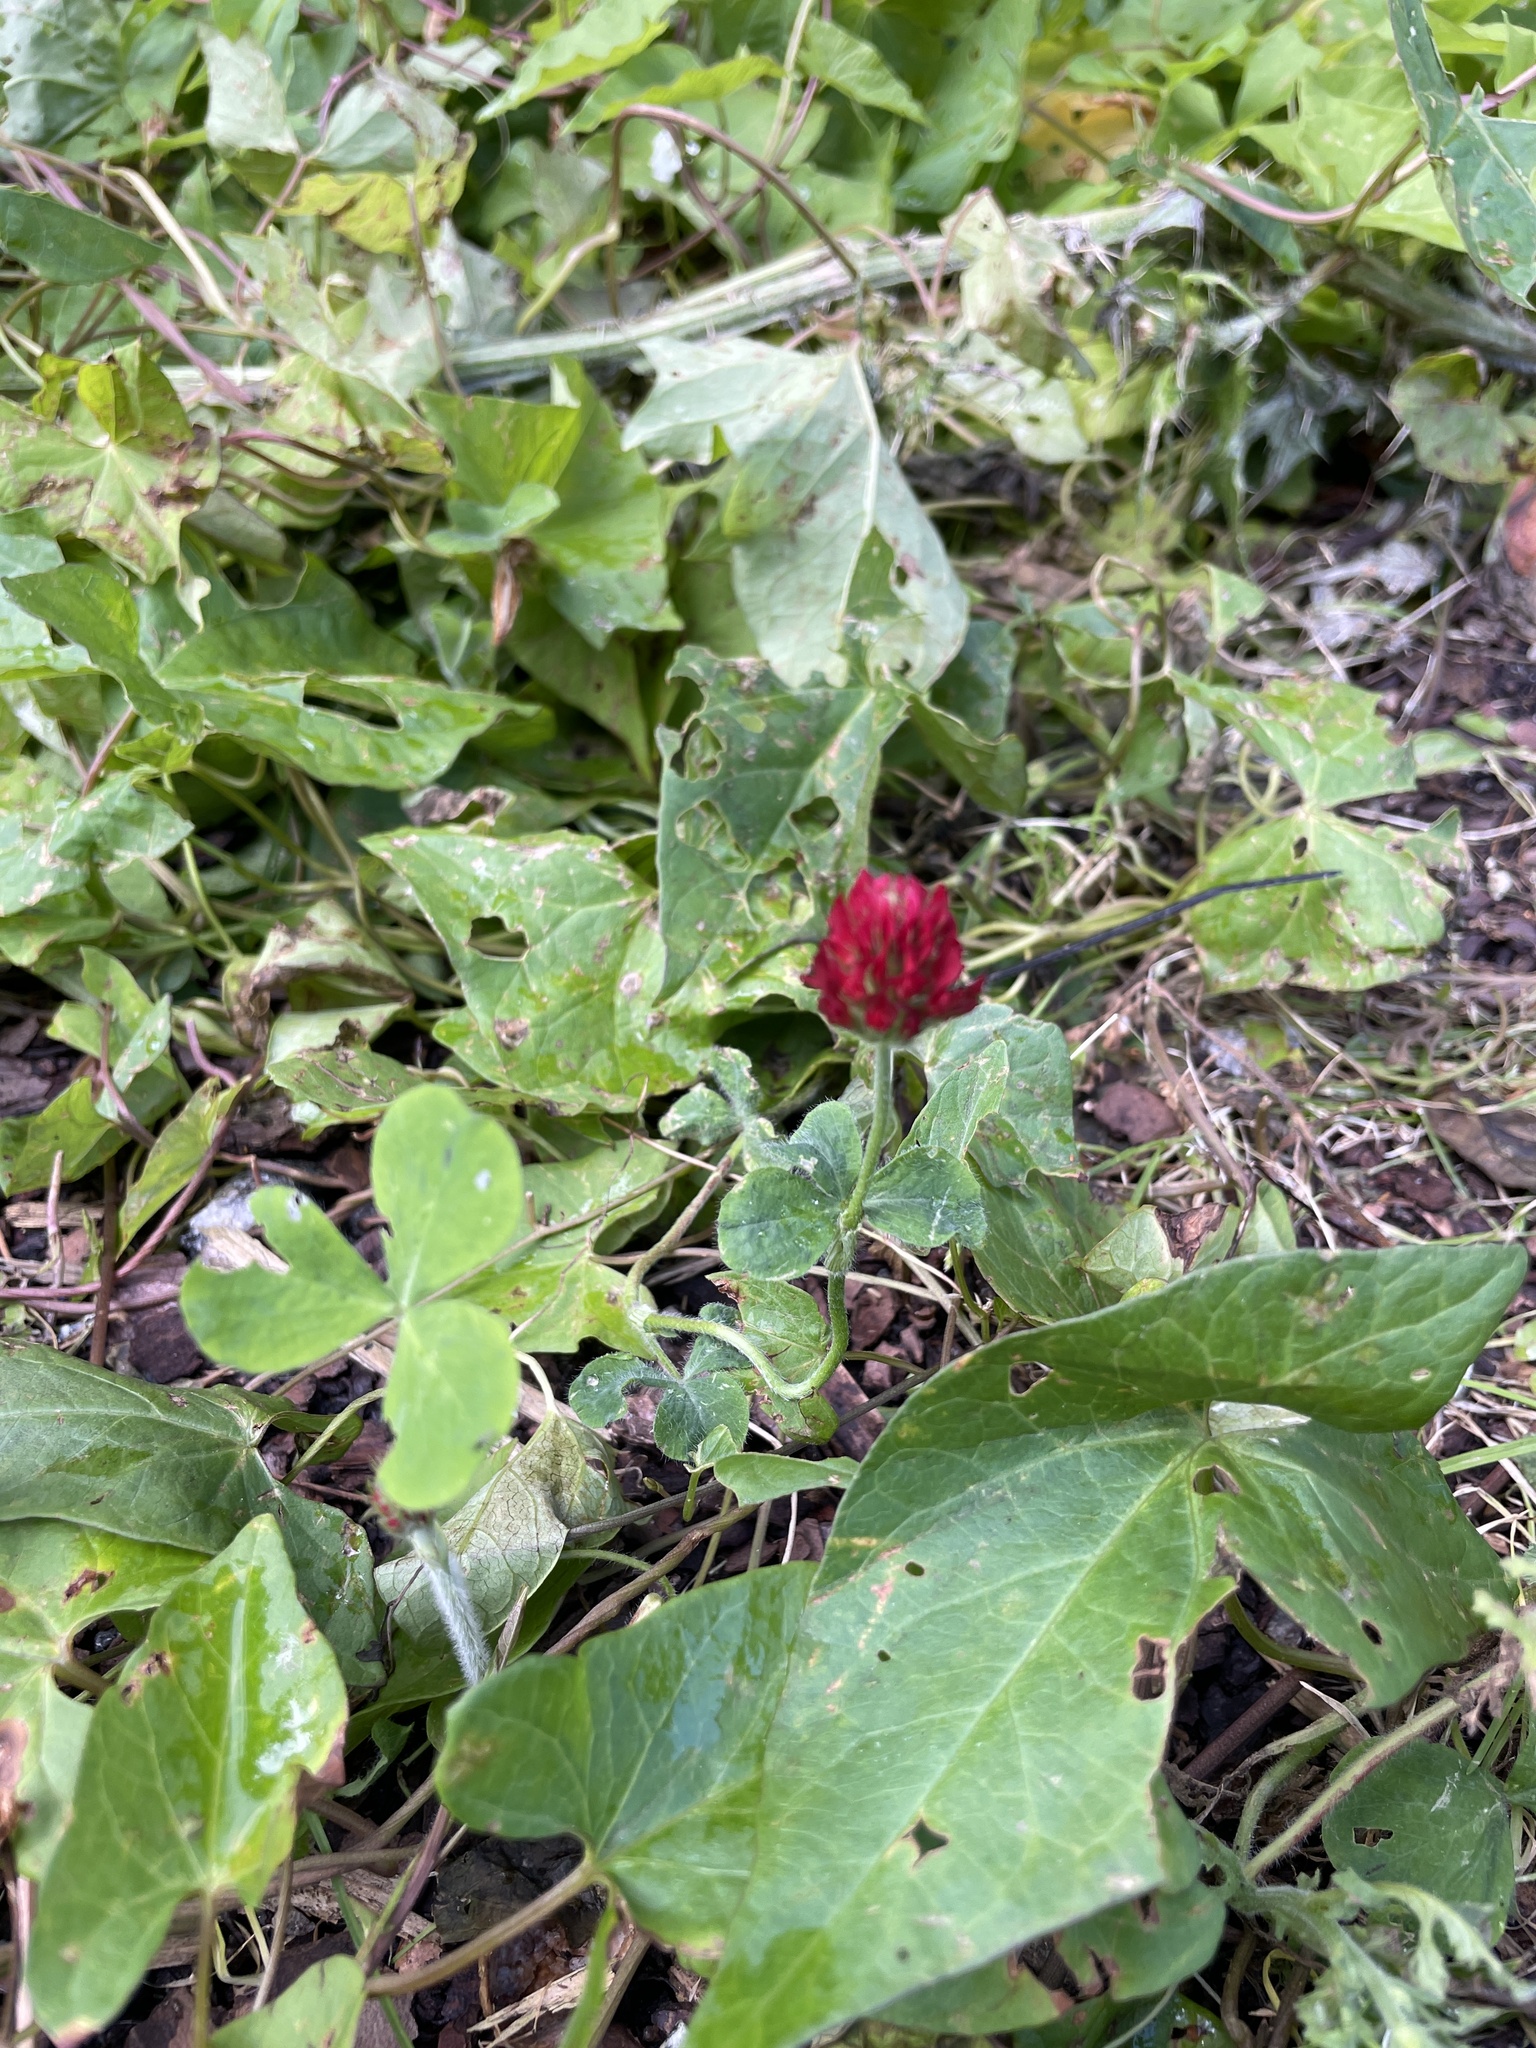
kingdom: Plantae
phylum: Tracheophyta
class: Magnoliopsida
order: Fabales
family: Fabaceae
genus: Trifolium
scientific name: Trifolium incarnatum
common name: Crimson clover
